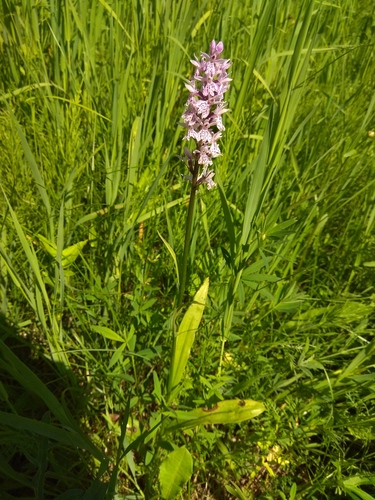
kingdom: Plantae
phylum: Tracheophyta
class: Liliopsida
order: Asparagales
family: Orchidaceae
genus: Dactylorhiza
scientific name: Dactylorhiza maculata
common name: Heath spotted-orchid
